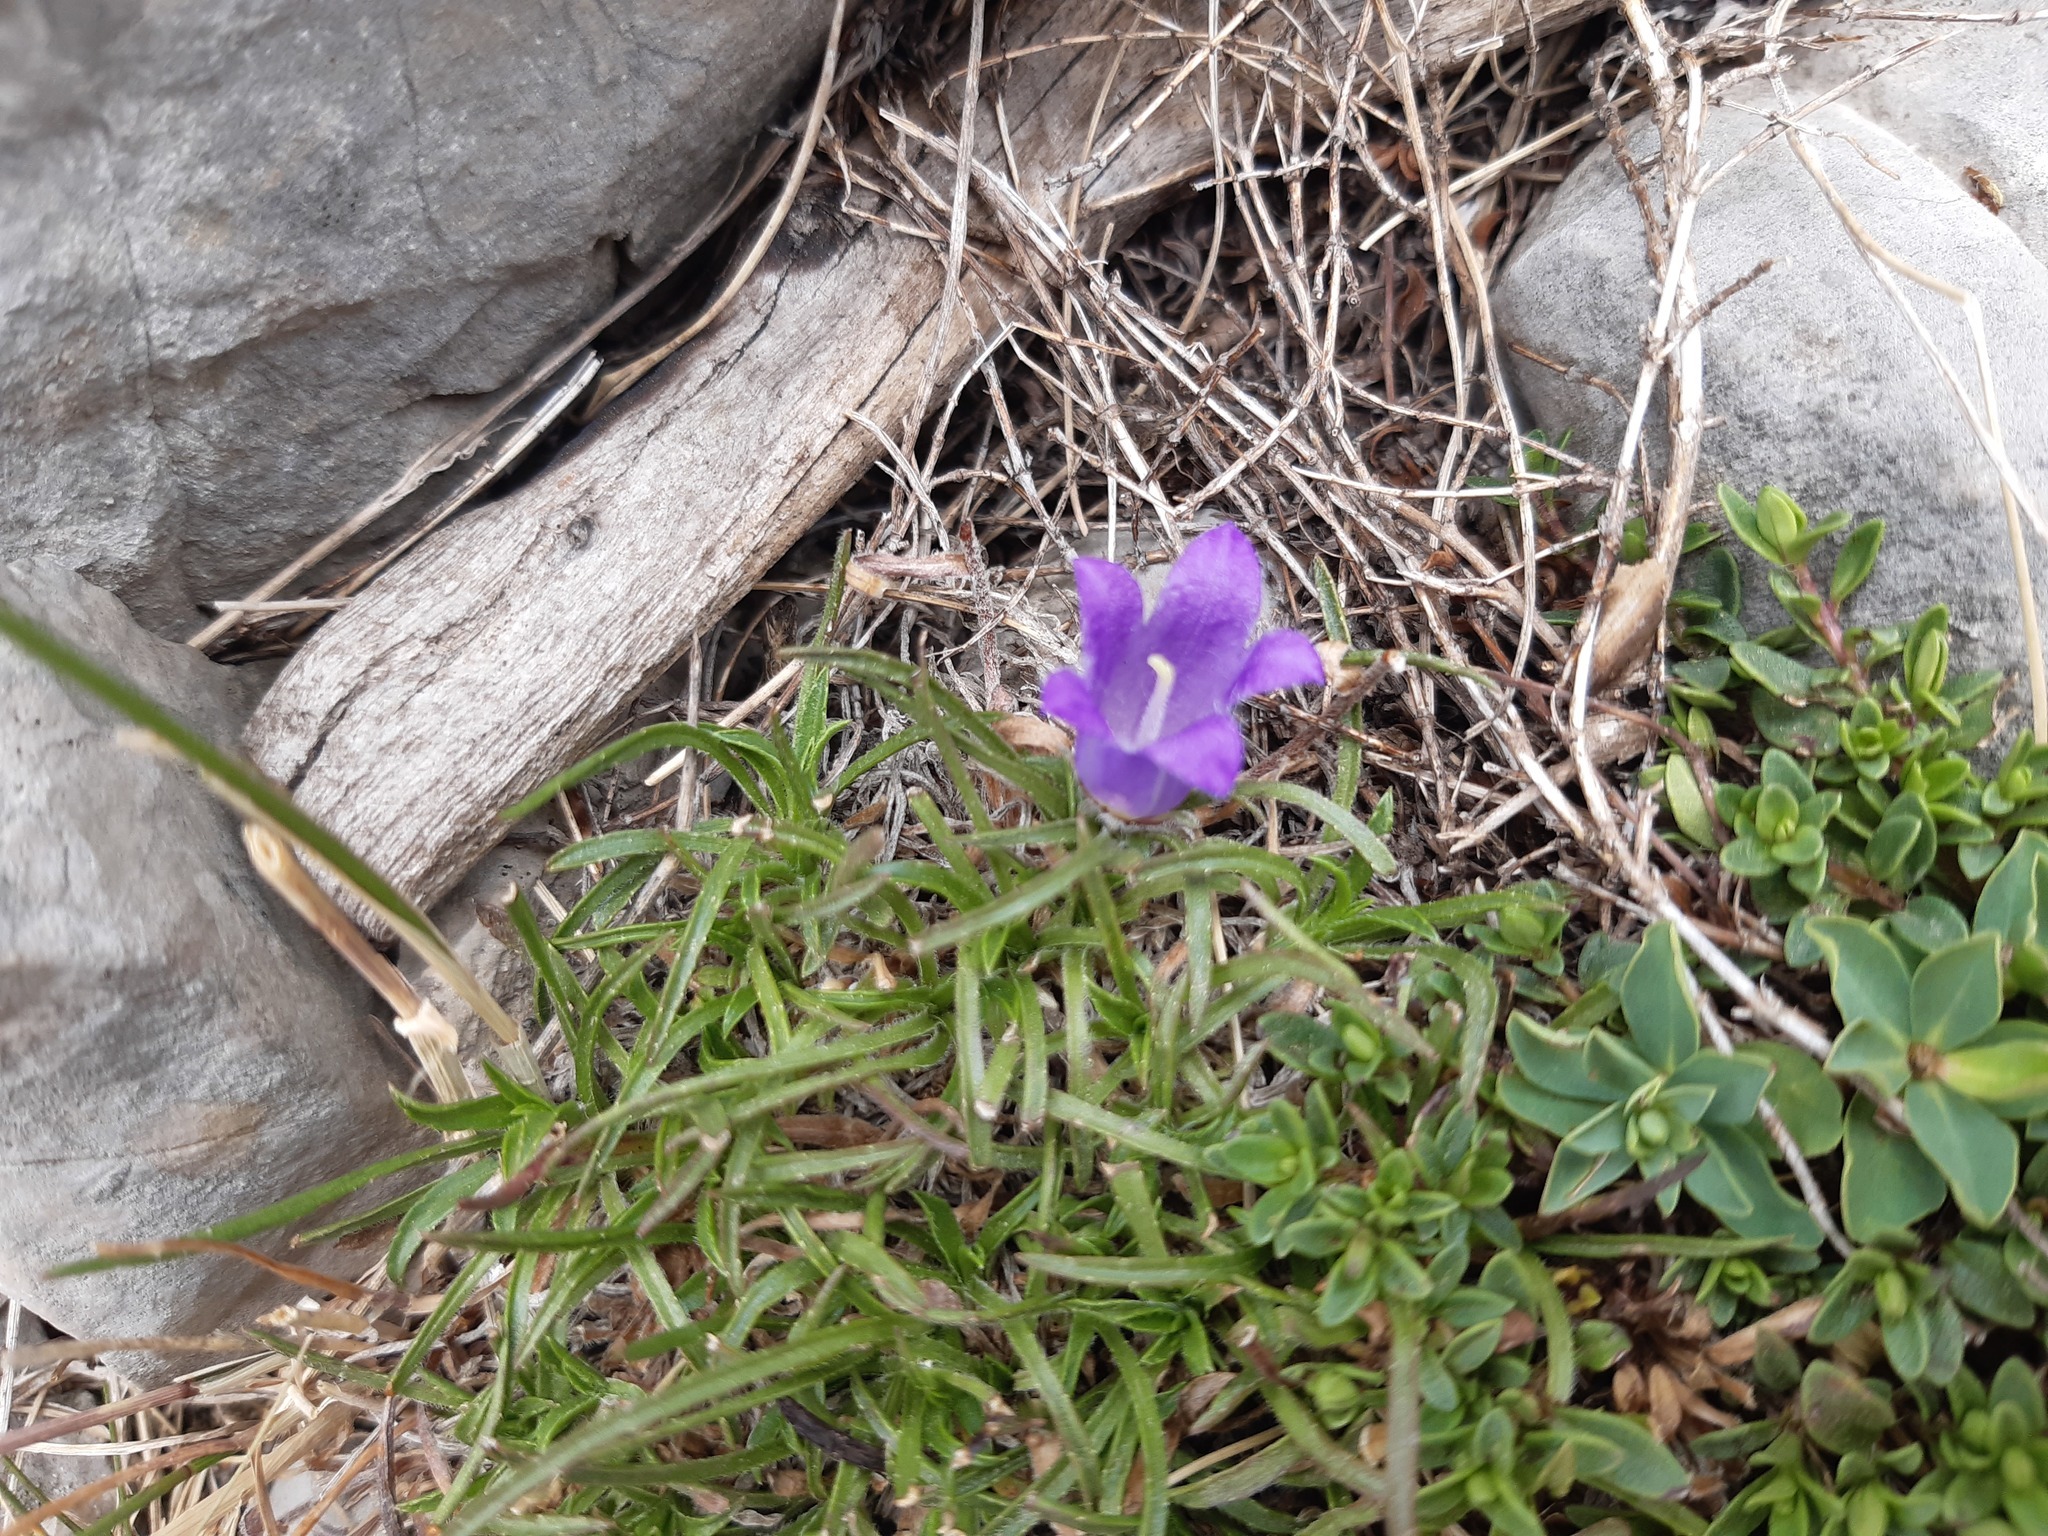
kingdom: Plantae
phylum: Tracheophyta
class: Magnoliopsida
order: Malpighiales
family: Euphorbiaceae
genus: Euphorbia
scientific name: Euphorbia capitulata
